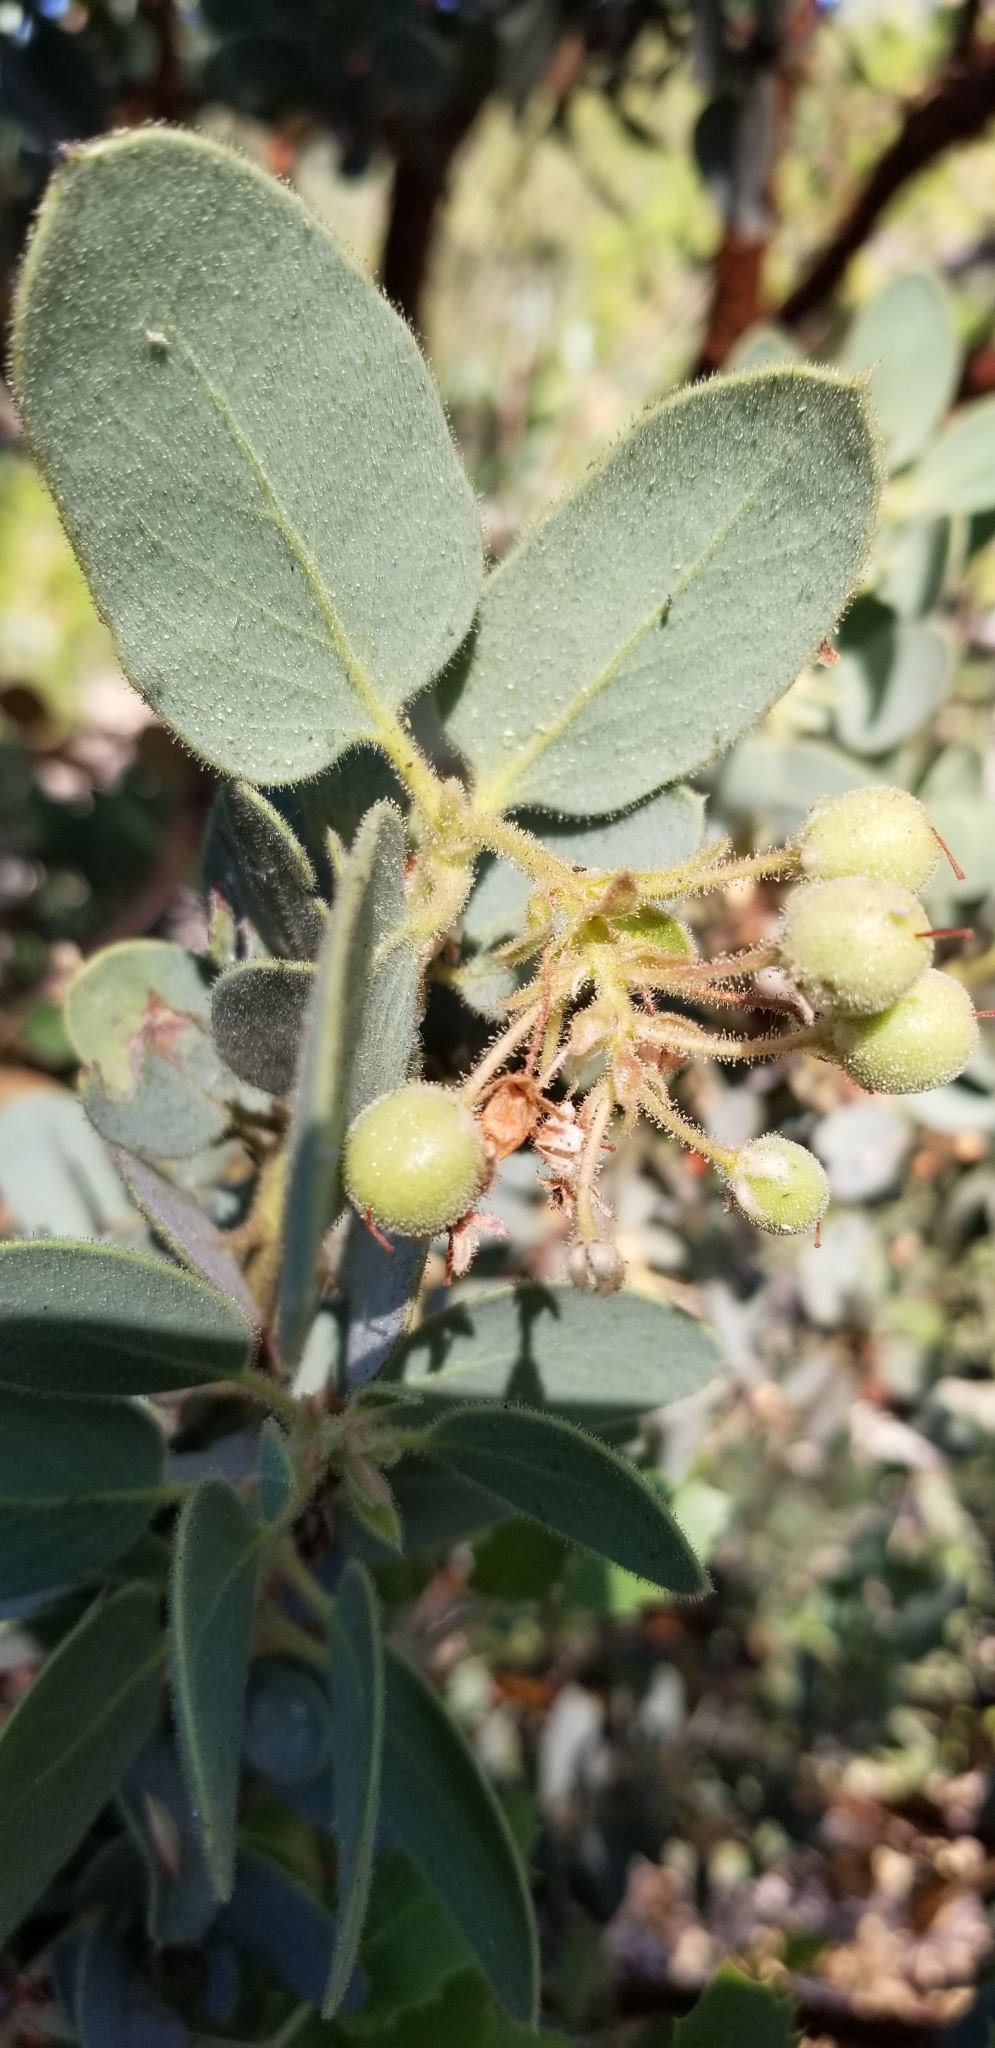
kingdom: Plantae
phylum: Tracheophyta
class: Magnoliopsida
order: Ericales
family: Ericaceae
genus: Arctostaphylos
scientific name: Arctostaphylos pringlei
